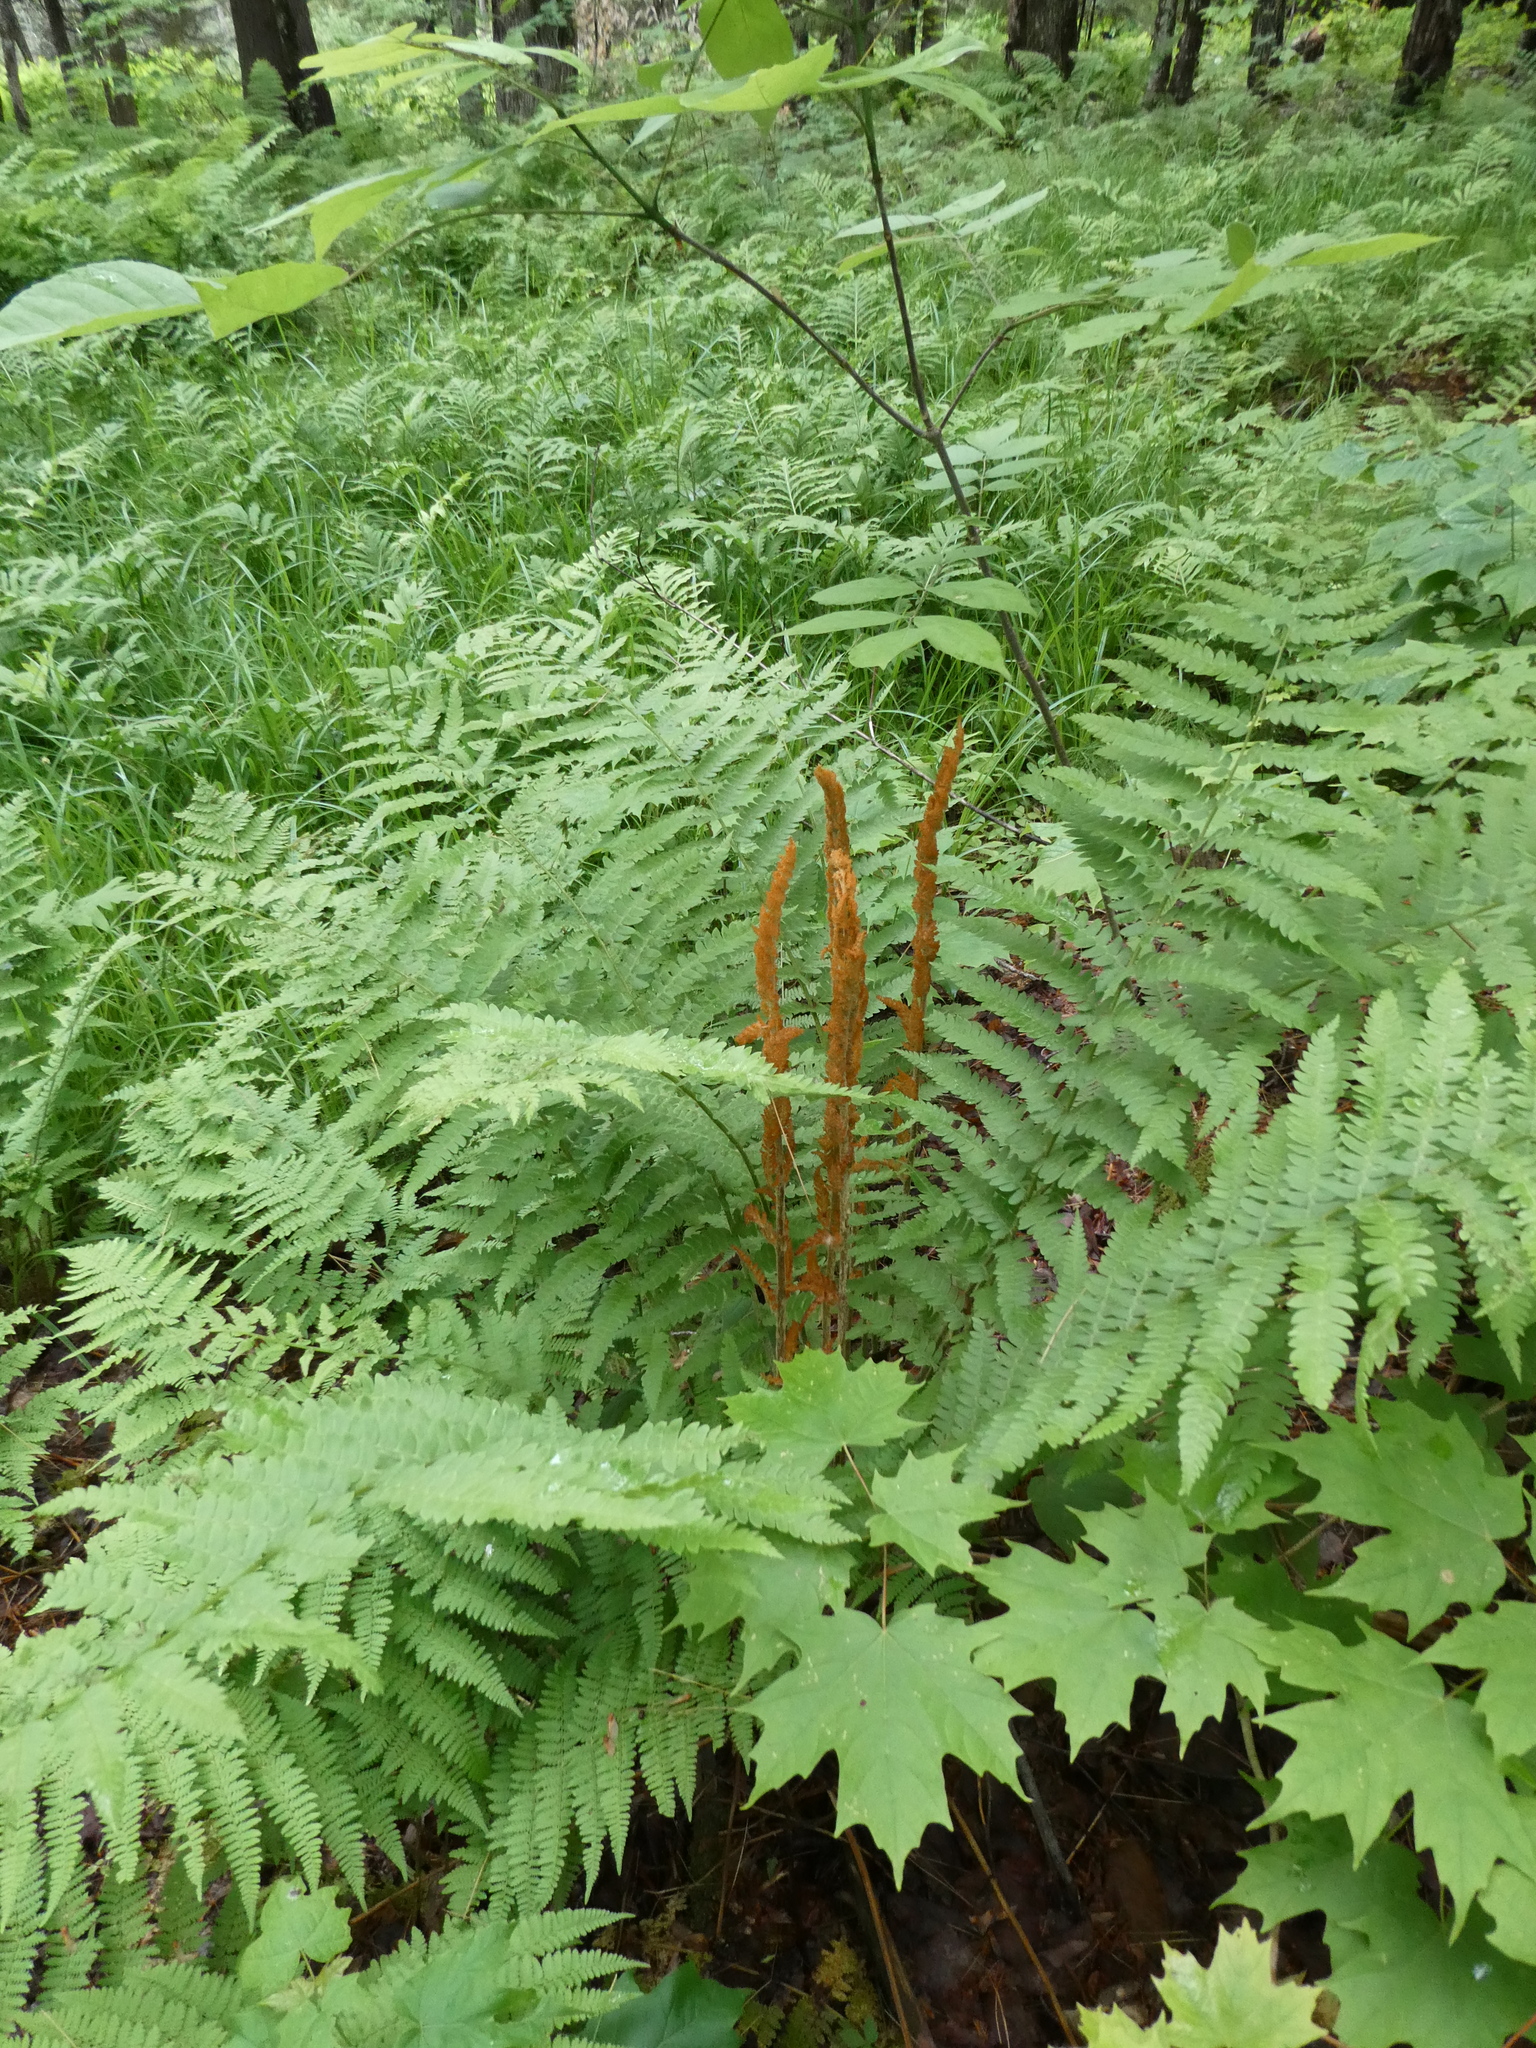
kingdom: Plantae
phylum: Tracheophyta
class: Polypodiopsida
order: Osmundales
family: Osmundaceae
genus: Osmundastrum
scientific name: Osmundastrum cinnamomeum
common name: Cinnamon fern
